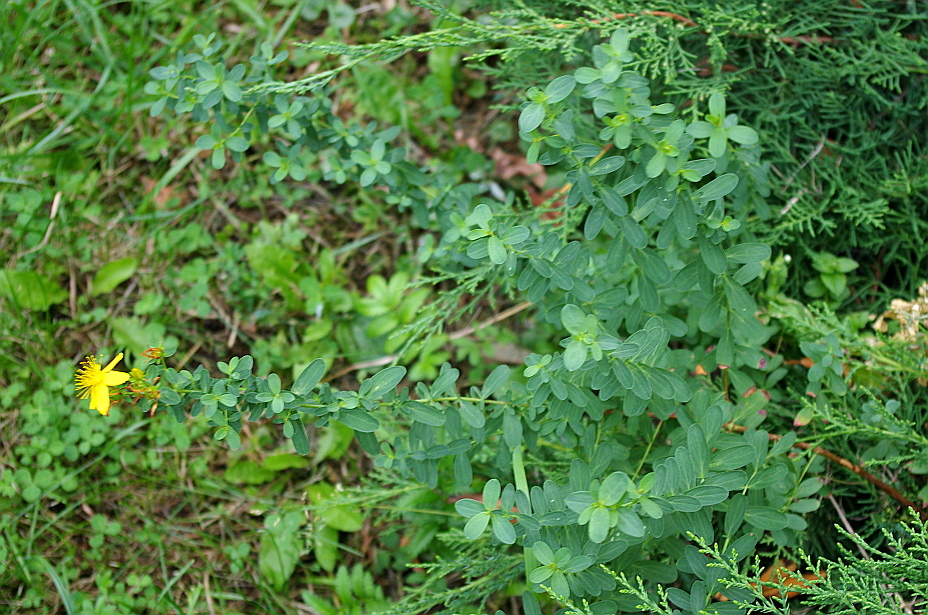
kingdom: Plantae
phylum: Tracheophyta
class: Magnoliopsida
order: Malpighiales
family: Hypericaceae
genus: Hypericum
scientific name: Hypericum perforatum
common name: Common st. johnswort
